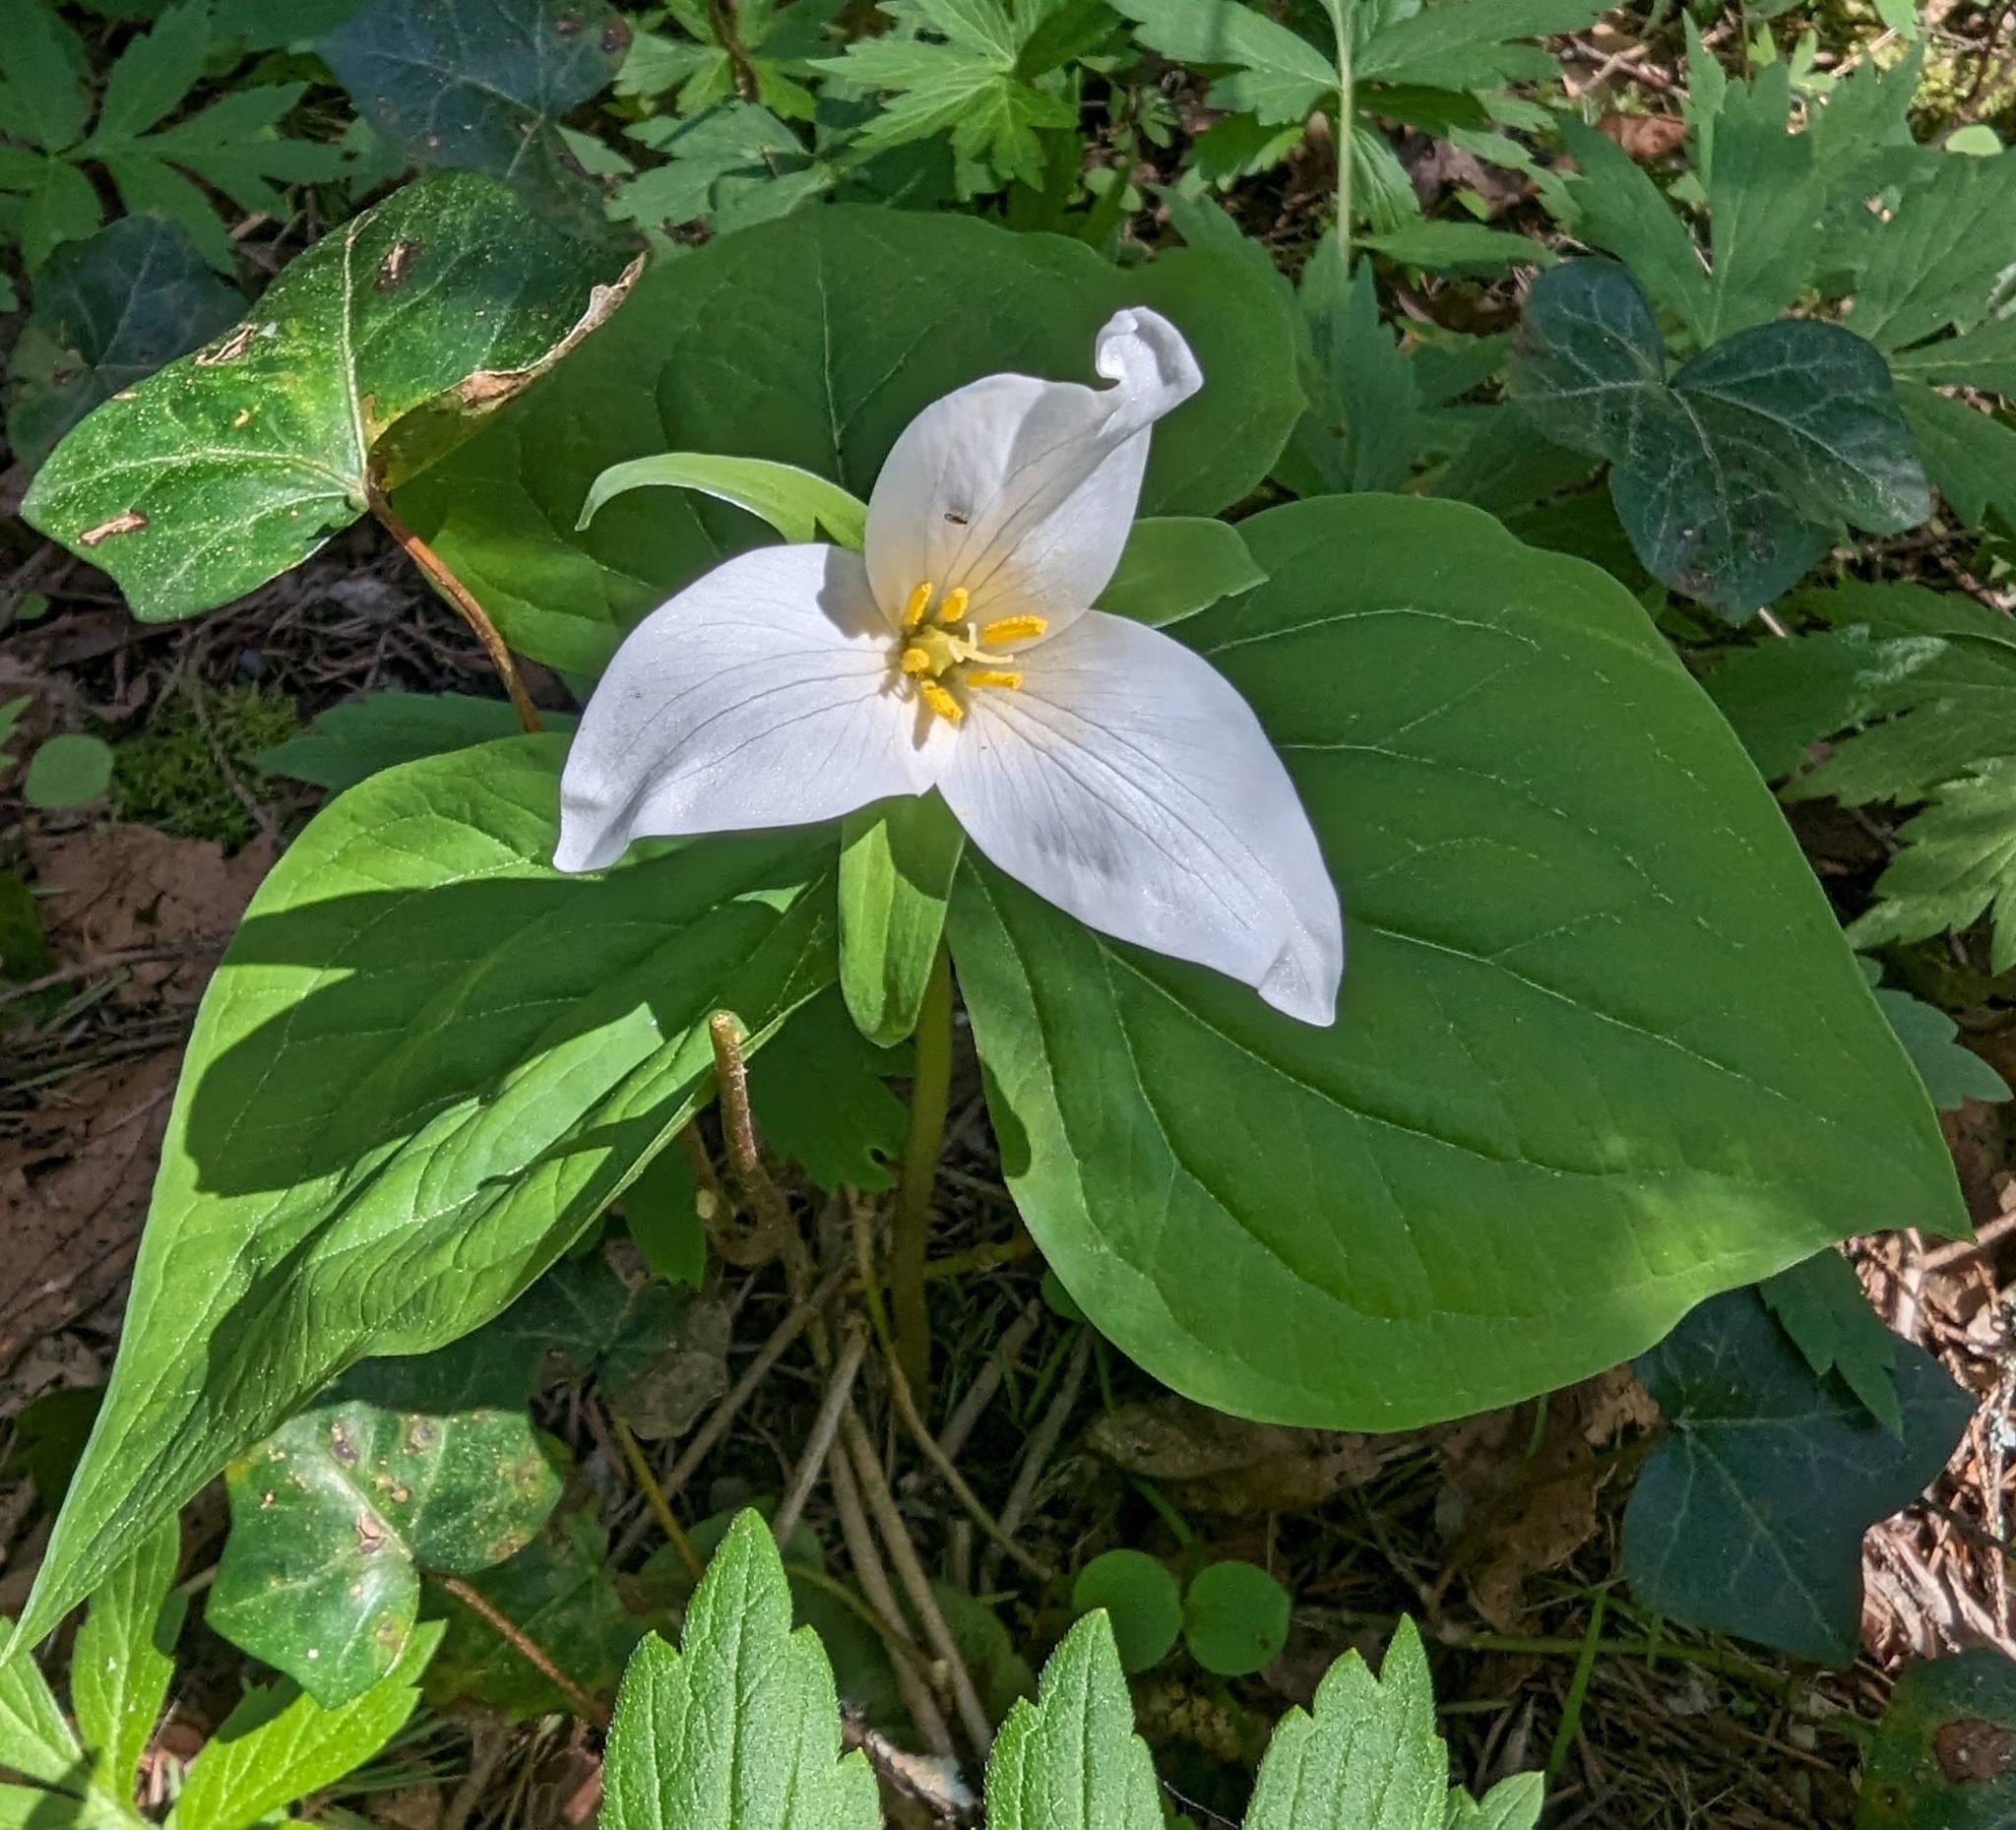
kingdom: Plantae
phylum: Tracheophyta
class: Liliopsida
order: Liliales
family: Melanthiaceae
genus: Trillium
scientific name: Trillium ovatum
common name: Pacific trillium
